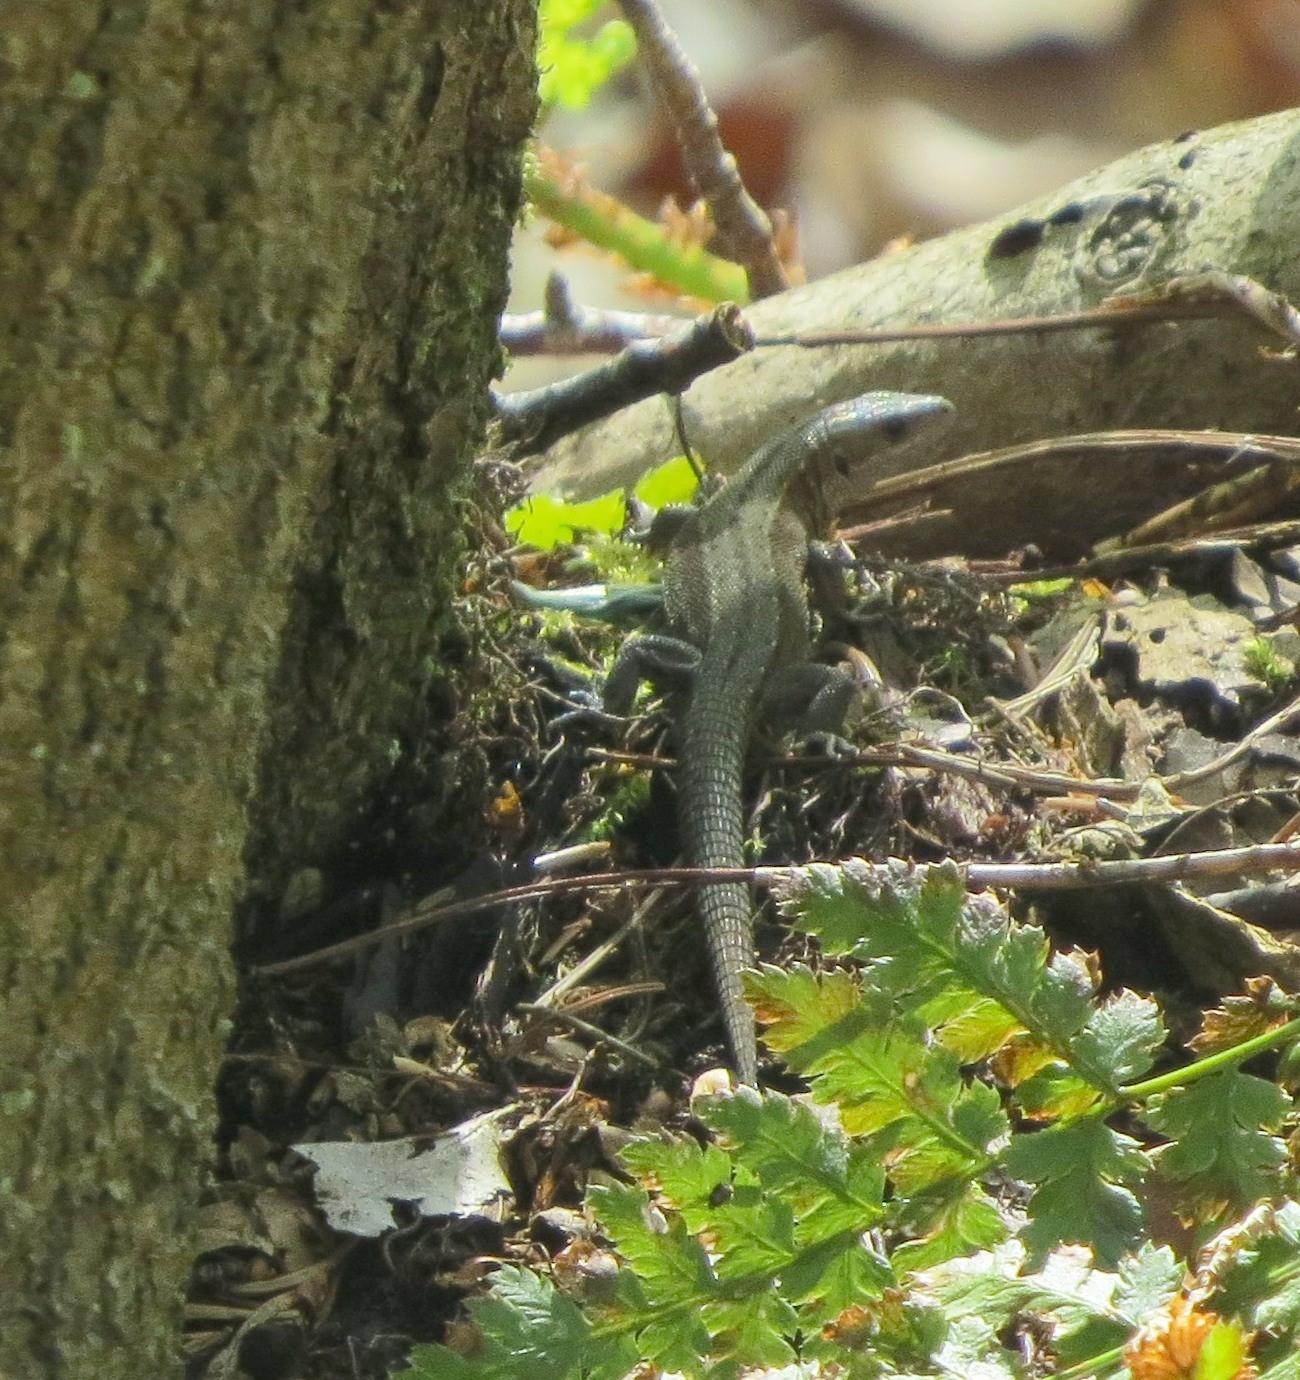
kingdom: Animalia
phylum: Chordata
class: Squamata
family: Lacertidae
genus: Zootoca
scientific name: Zootoca vivipara
